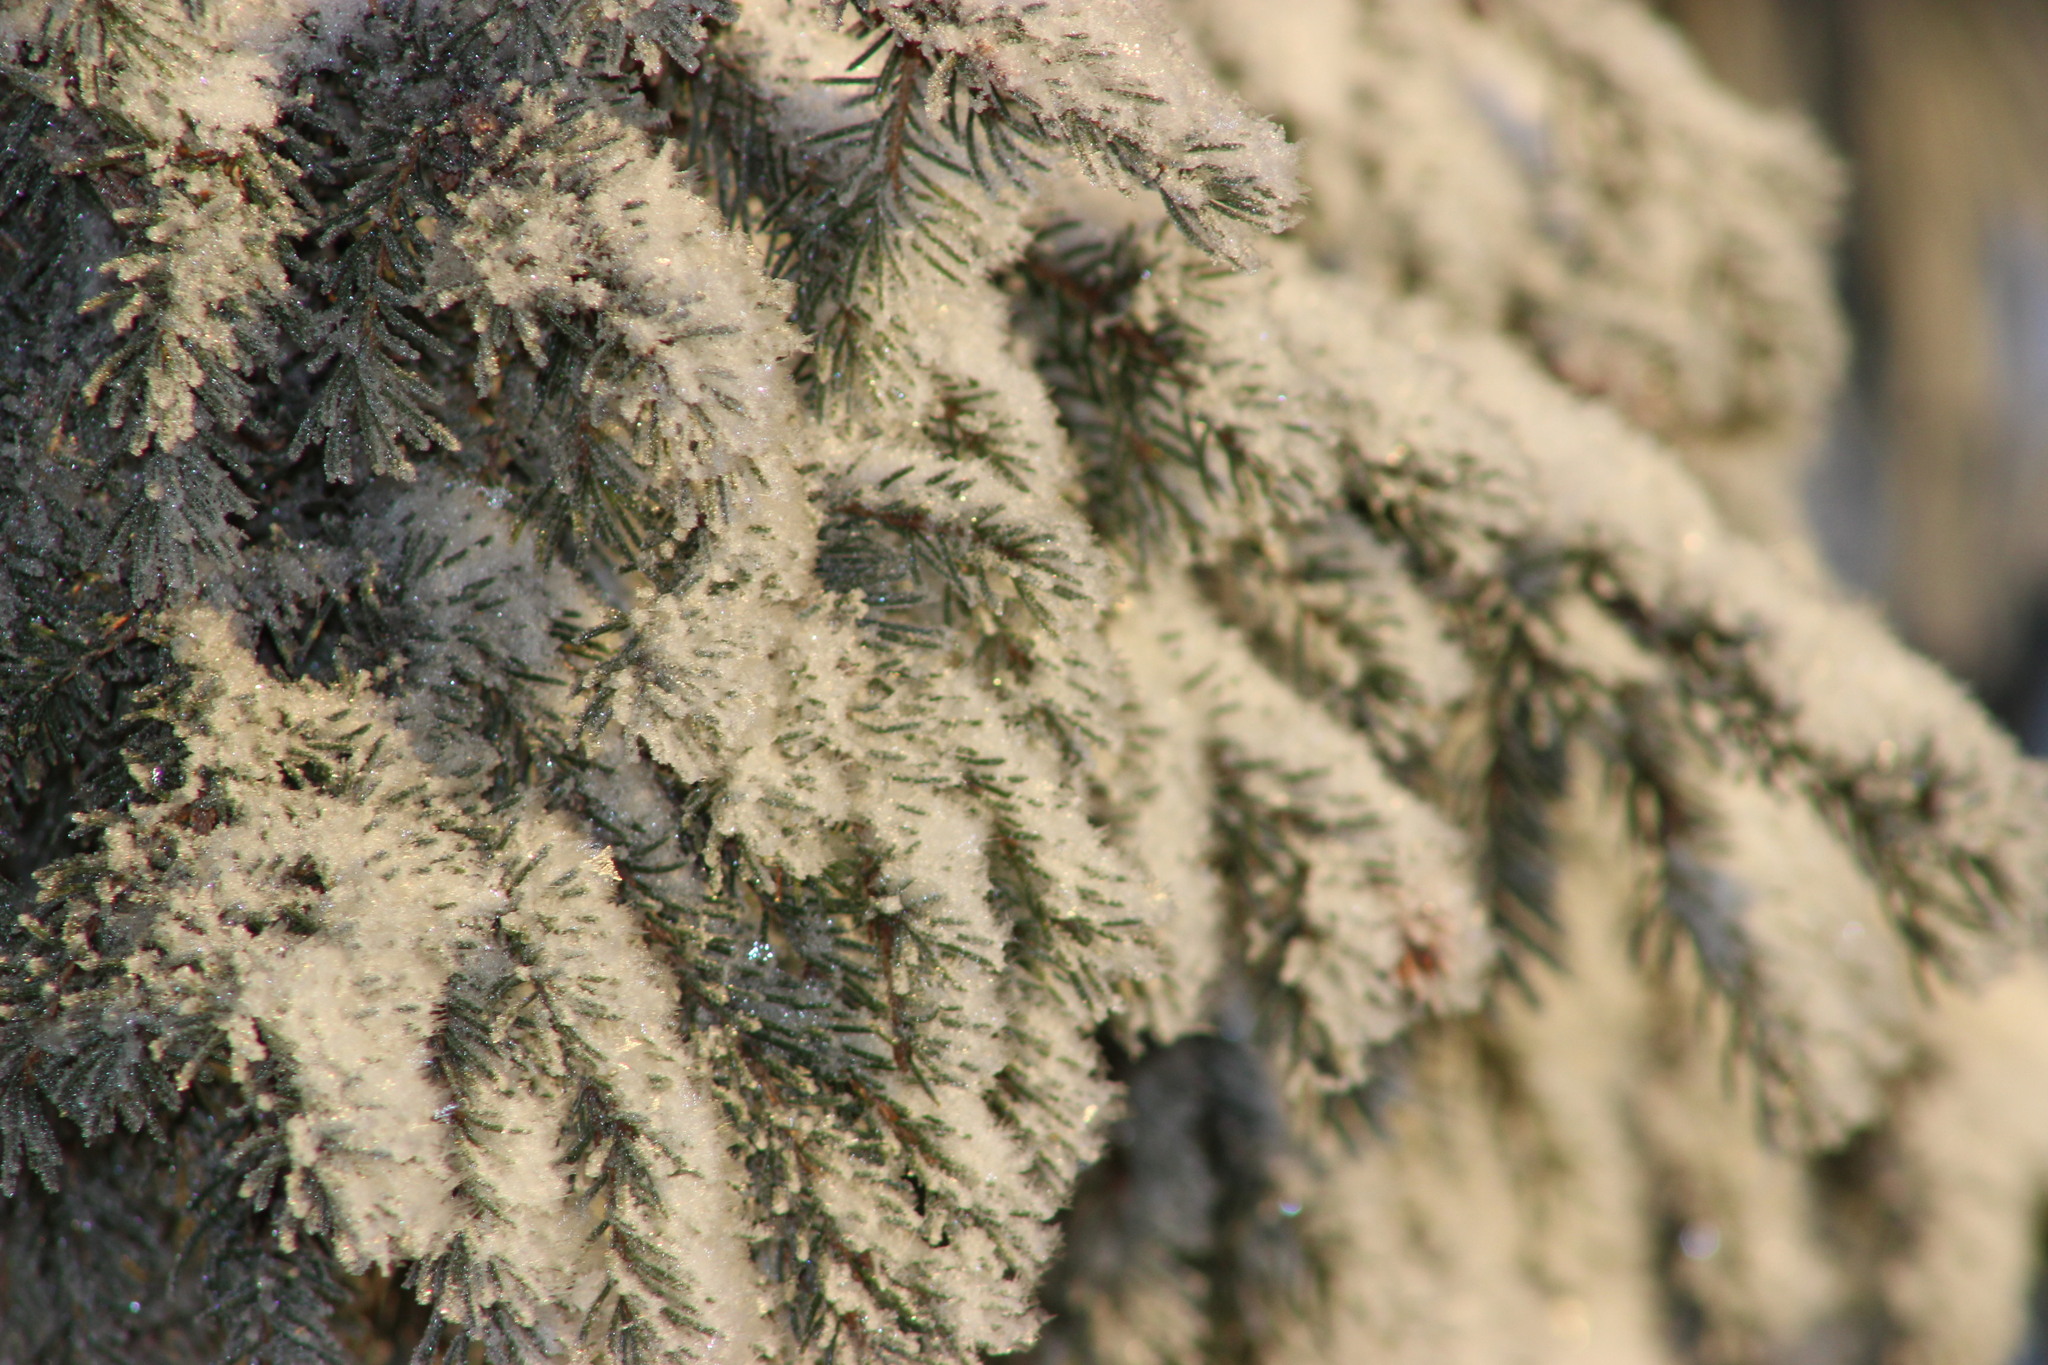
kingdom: Plantae
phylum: Tracheophyta
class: Pinopsida
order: Pinales
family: Pinaceae
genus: Picea
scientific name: Picea obovata
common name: Siberian spruce
